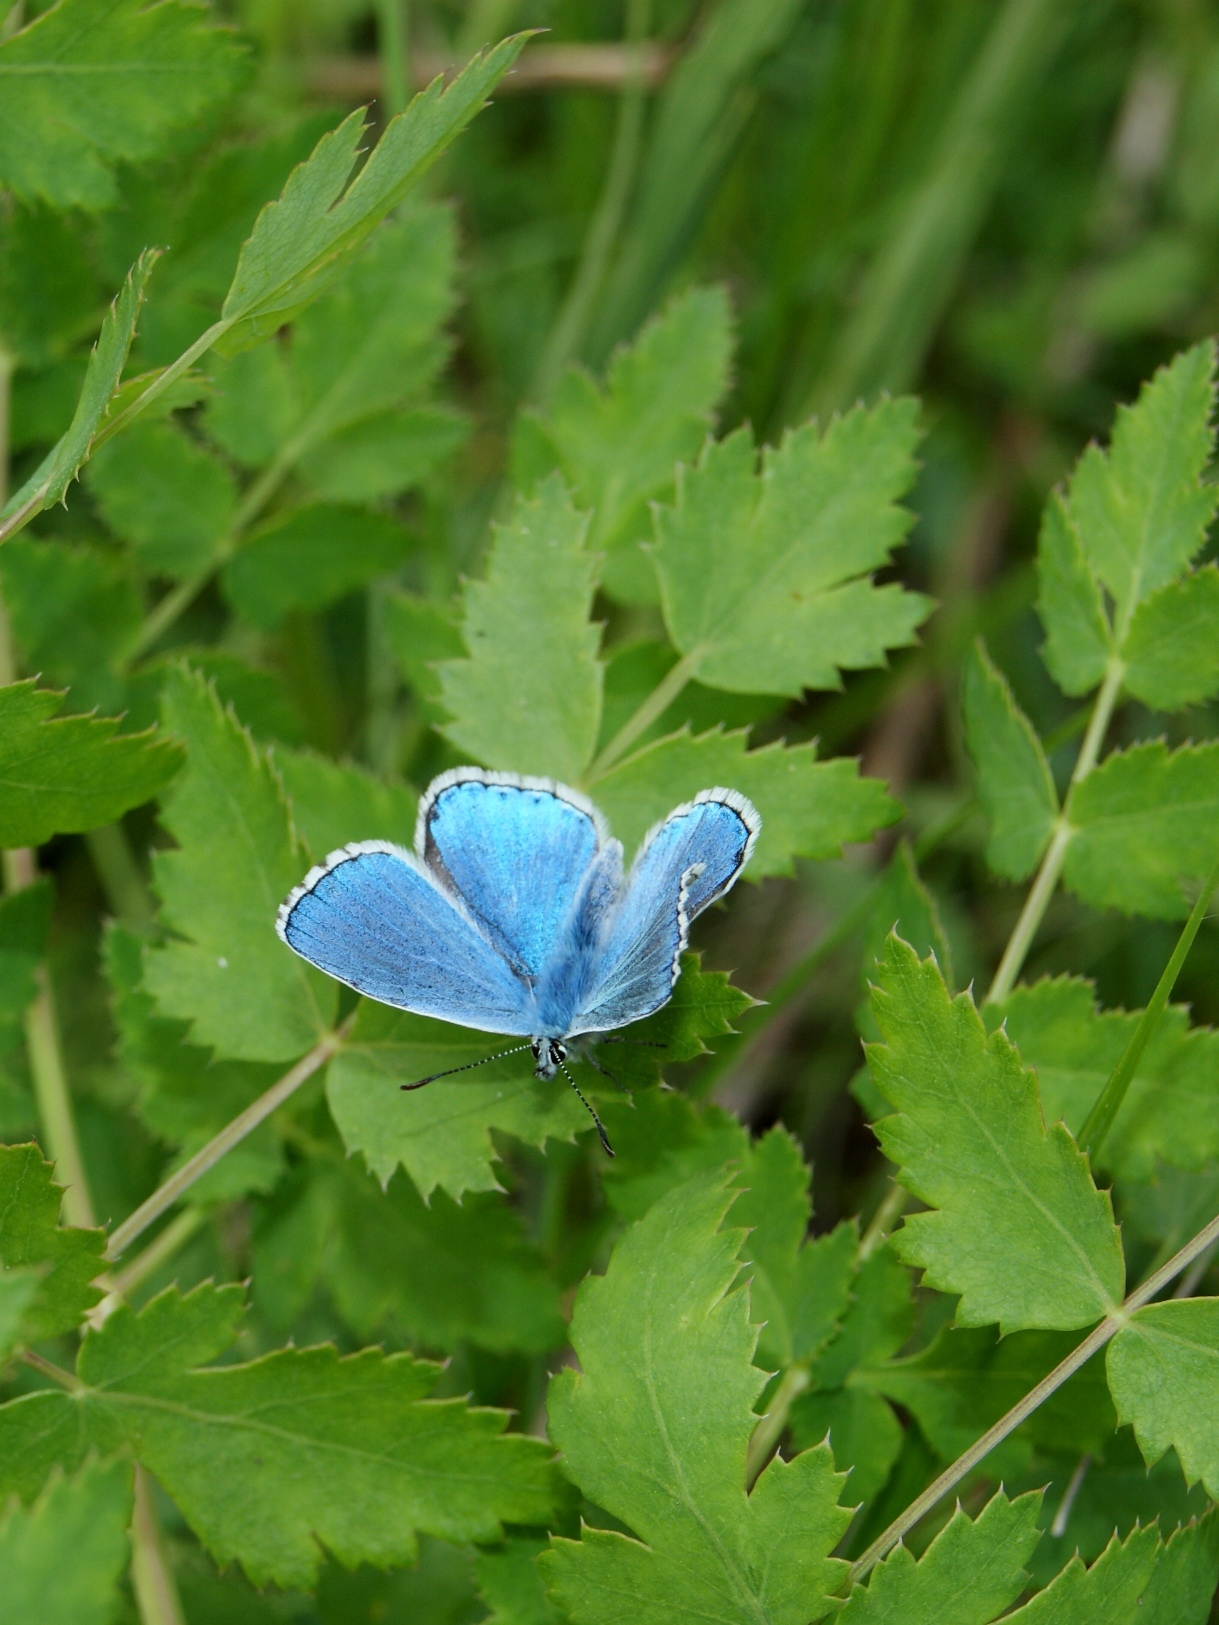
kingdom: Animalia
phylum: Arthropoda
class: Insecta
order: Lepidoptera
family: Lycaenidae
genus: Lysandra
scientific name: Lysandra bellargus
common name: Adonis blue
